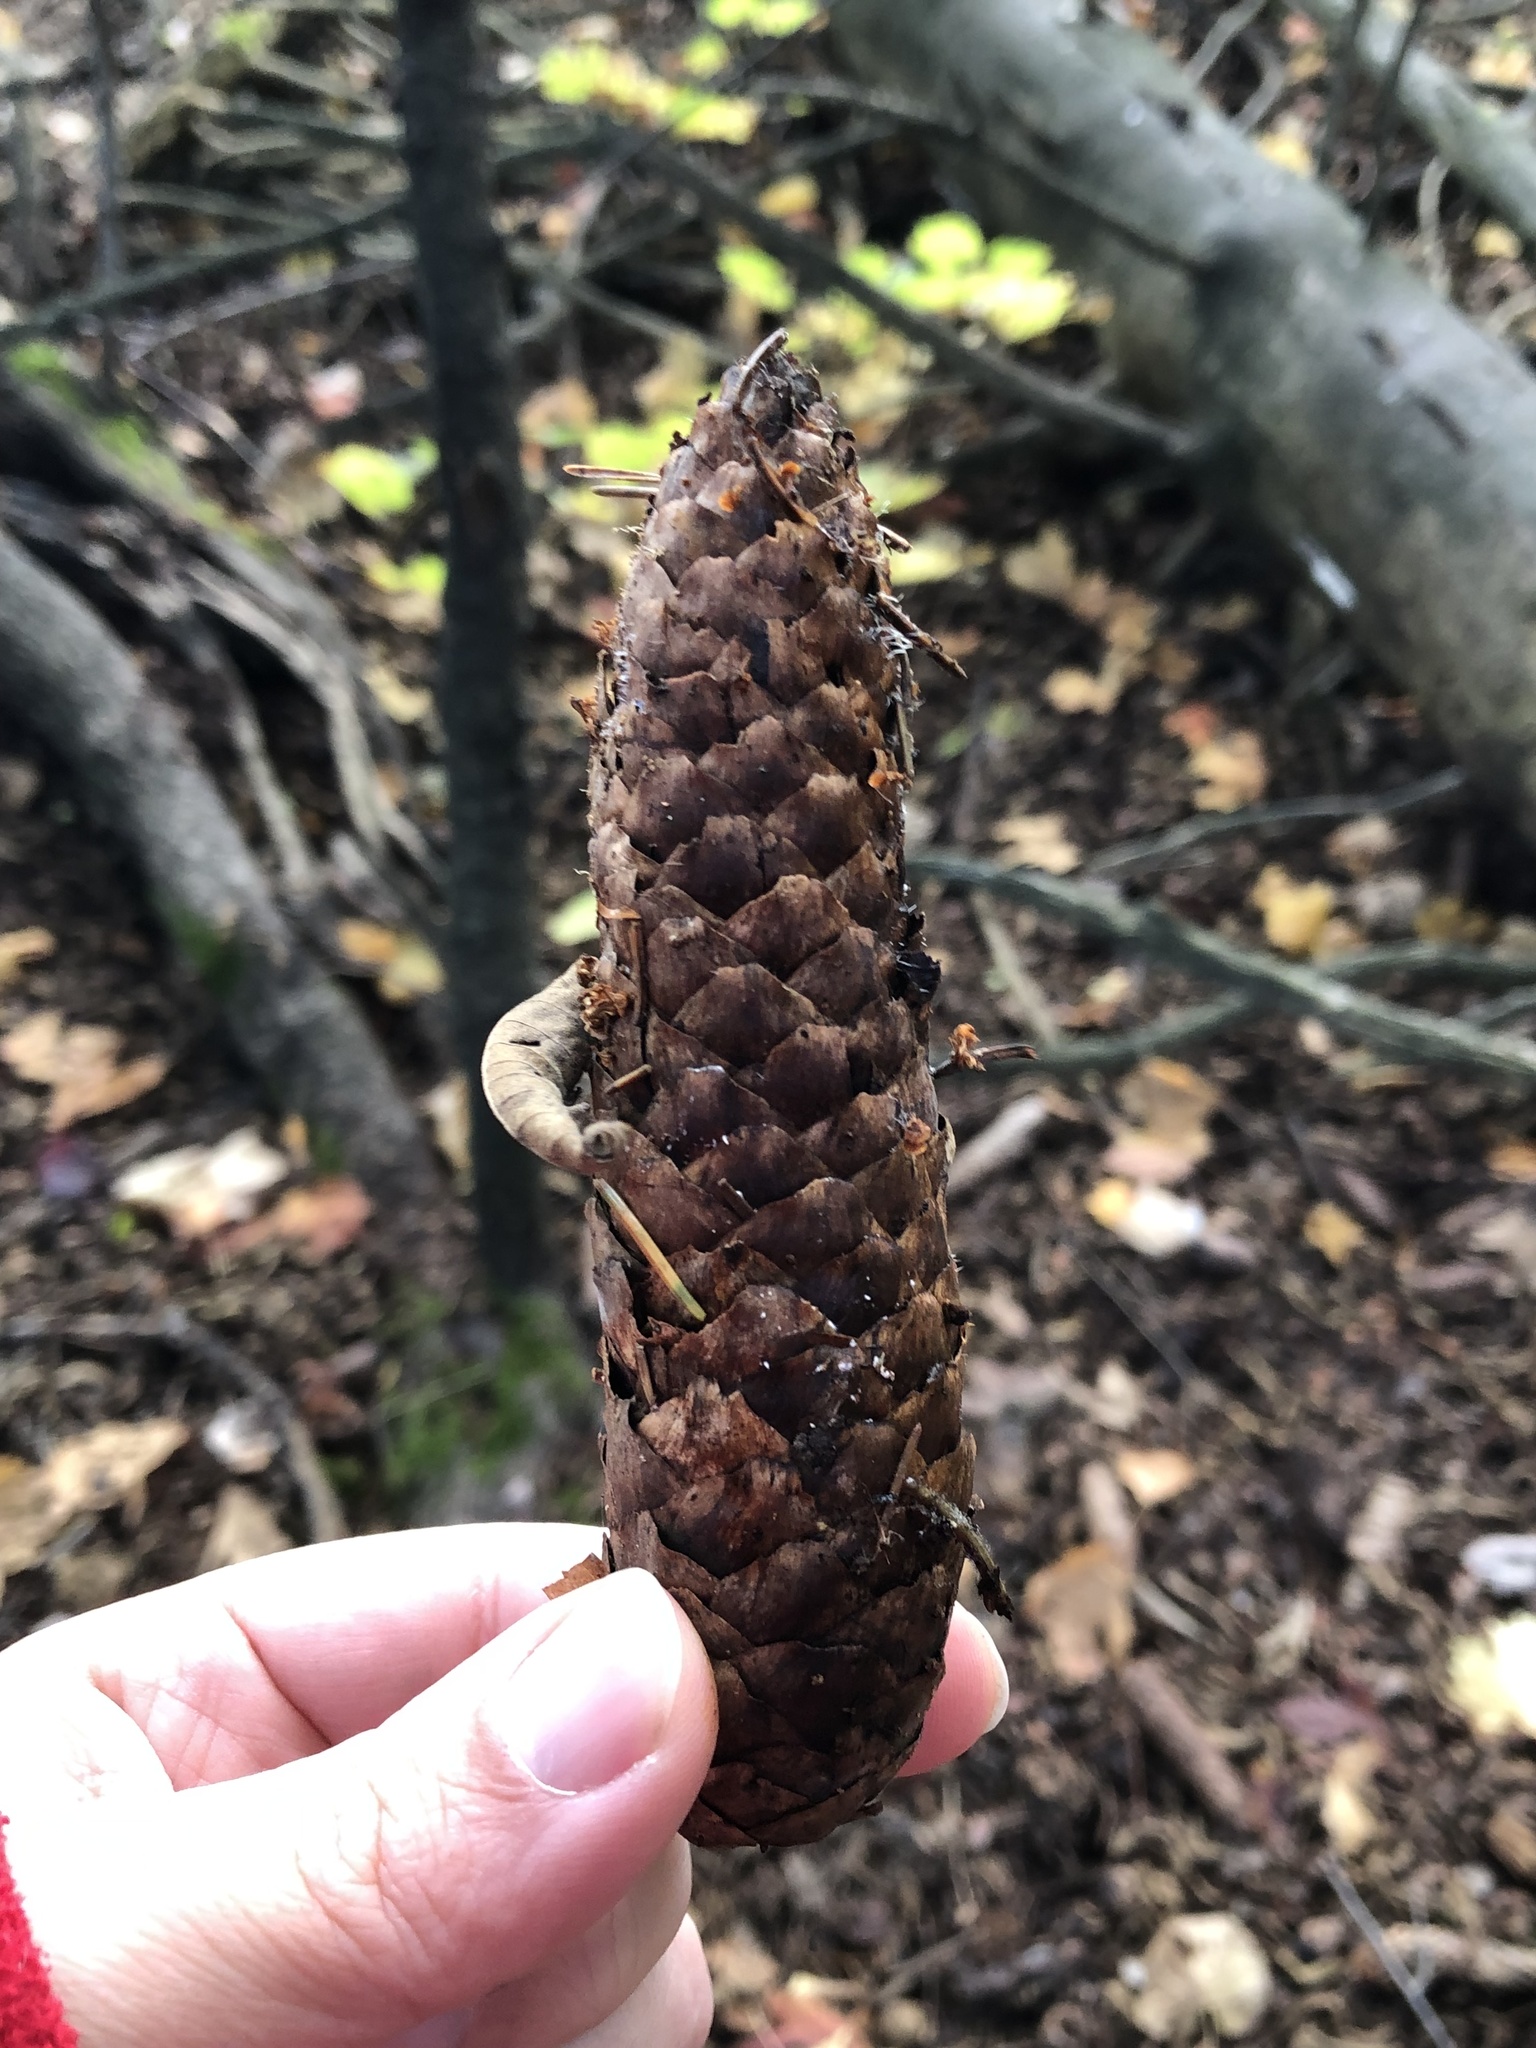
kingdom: Plantae
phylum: Tracheophyta
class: Pinopsida
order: Pinales
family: Pinaceae
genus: Picea
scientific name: Picea abies
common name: Norway spruce
